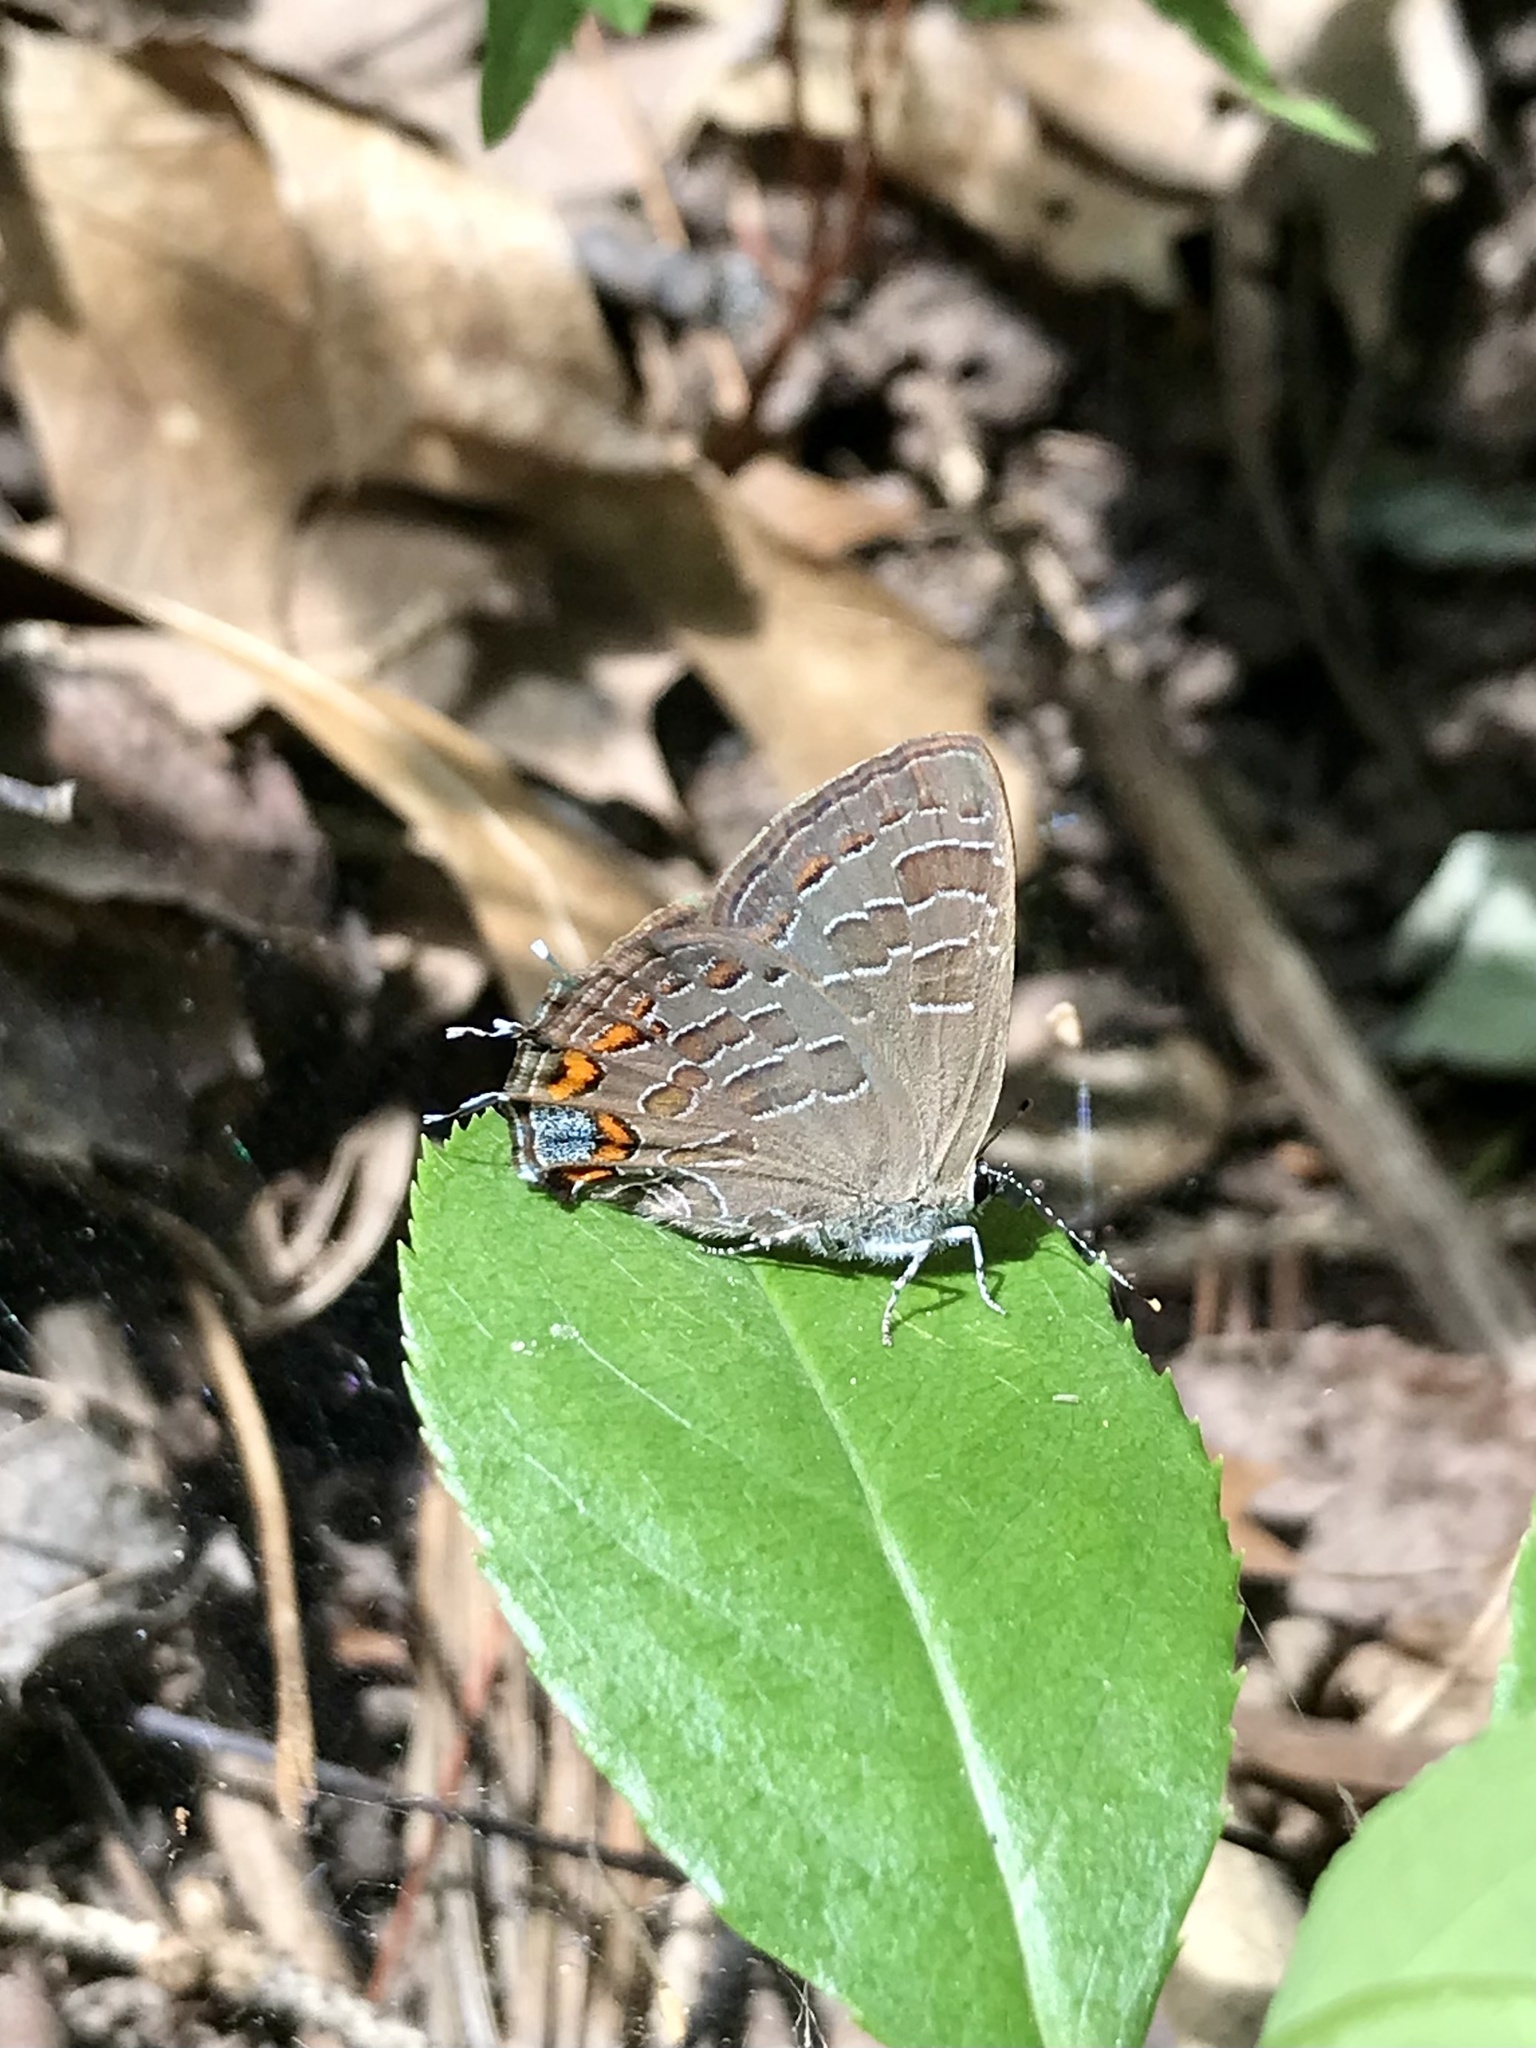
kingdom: Animalia
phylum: Arthropoda
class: Insecta
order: Lepidoptera
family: Lycaenidae
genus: Satyrium
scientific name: Satyrium liparops
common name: Striped hairstreak
